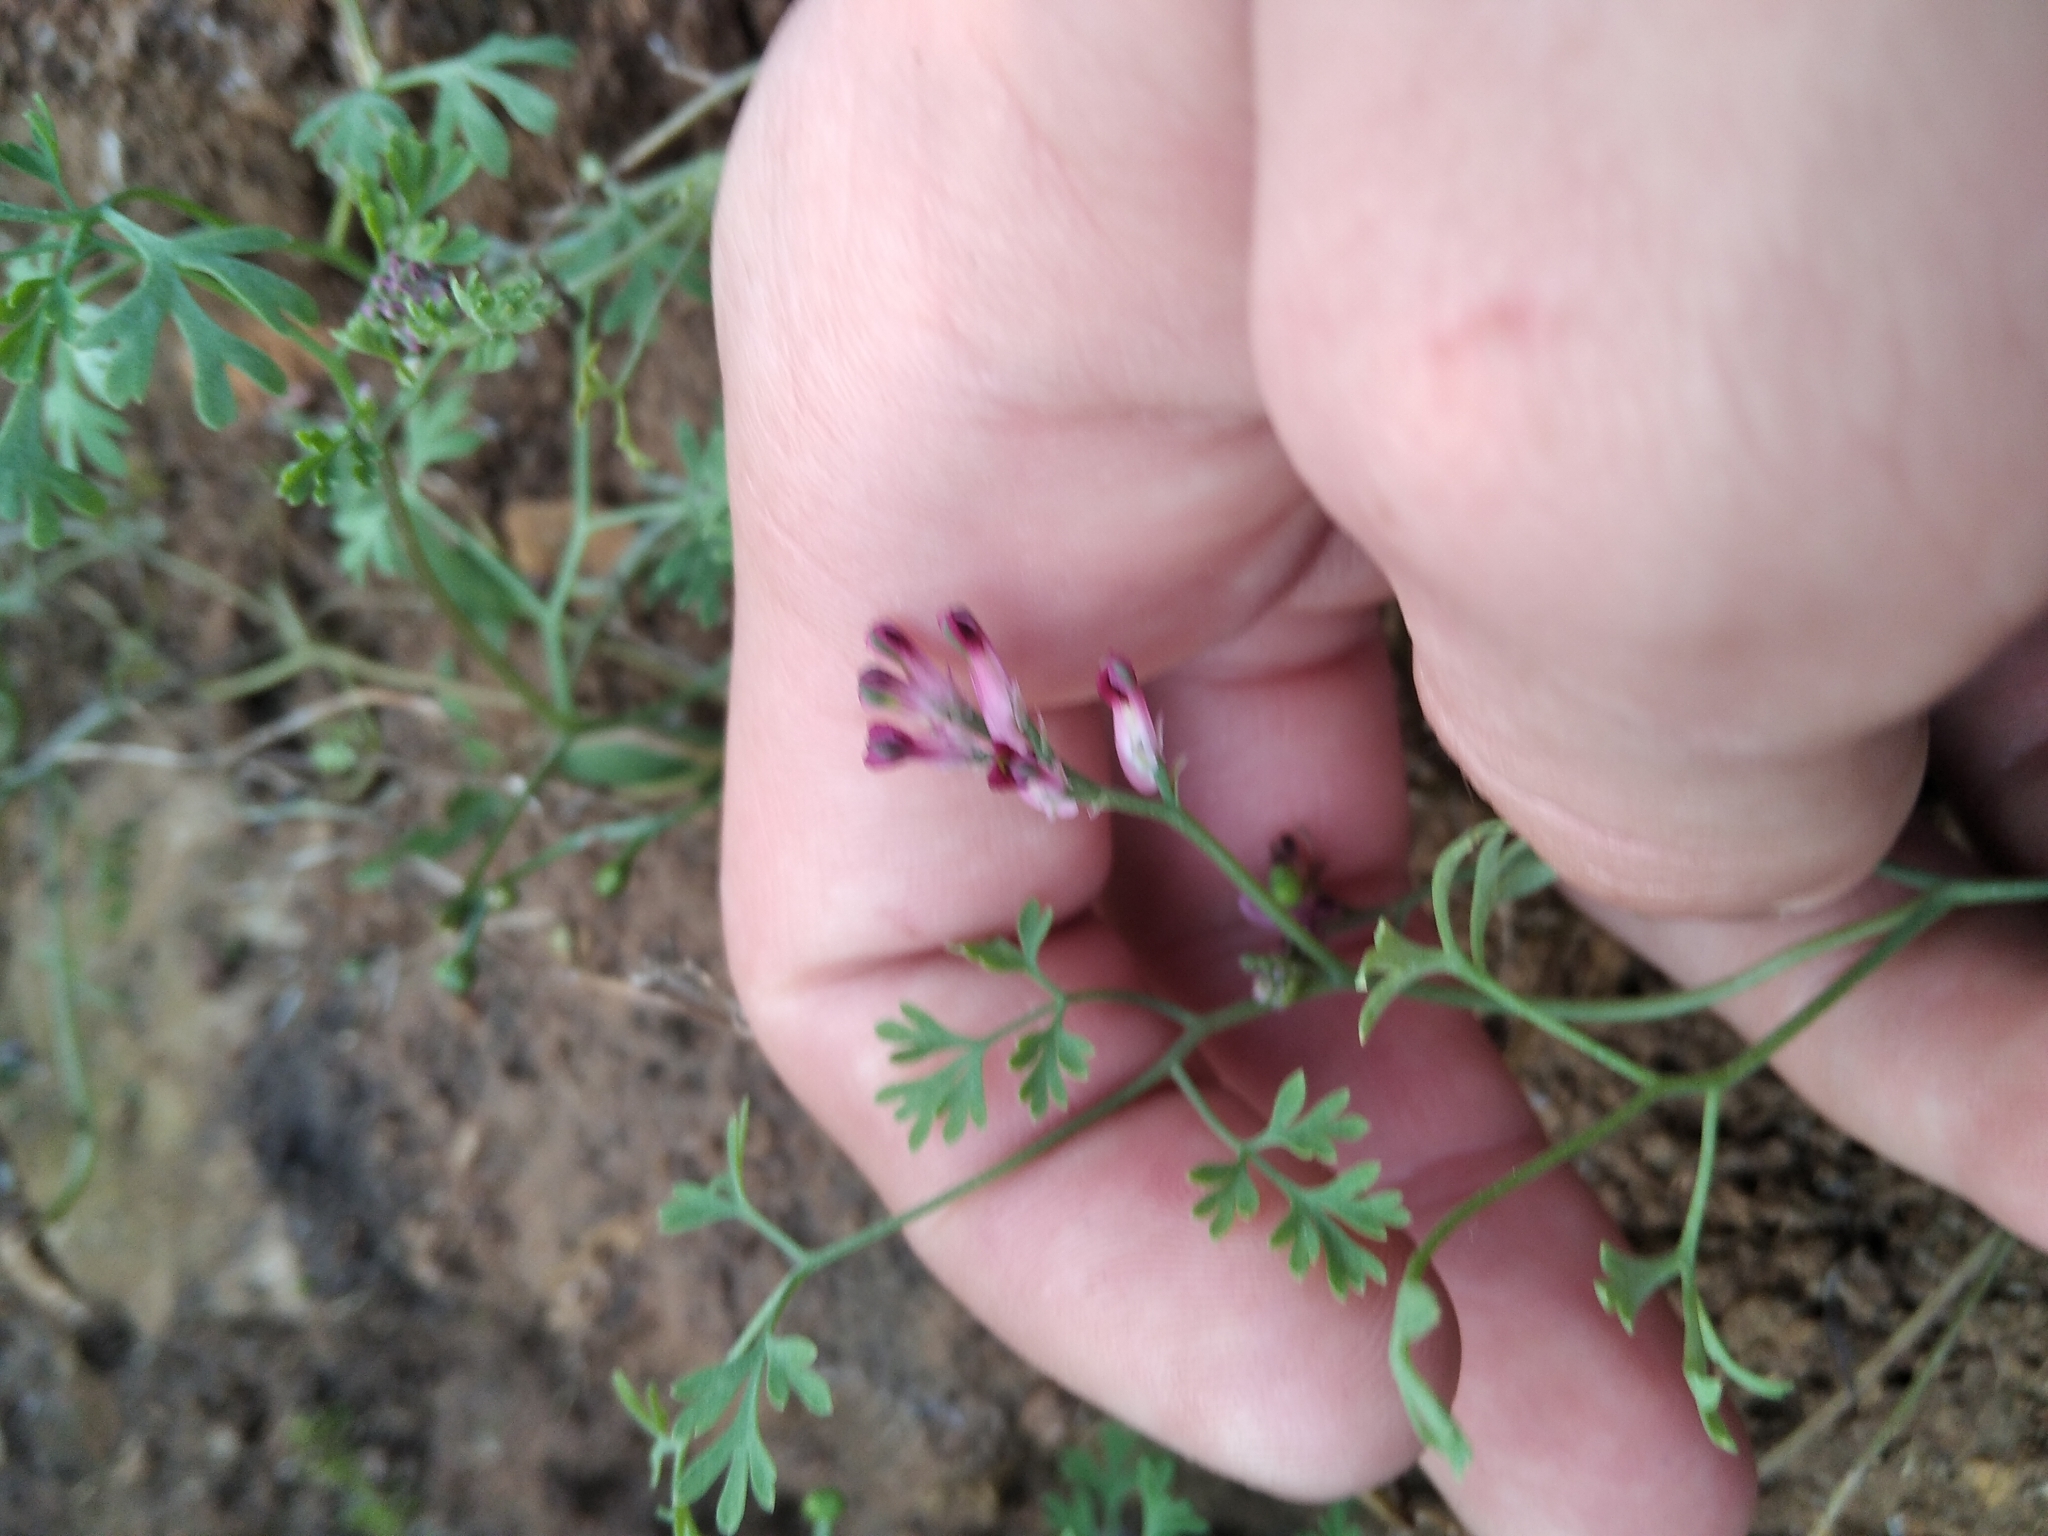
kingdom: Plantae
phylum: Tracheophyta
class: Magnoliopsida
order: Ranunculales
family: Papaveraceae
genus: Fumaria
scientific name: Fumaria officinalis
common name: Common fumitory
